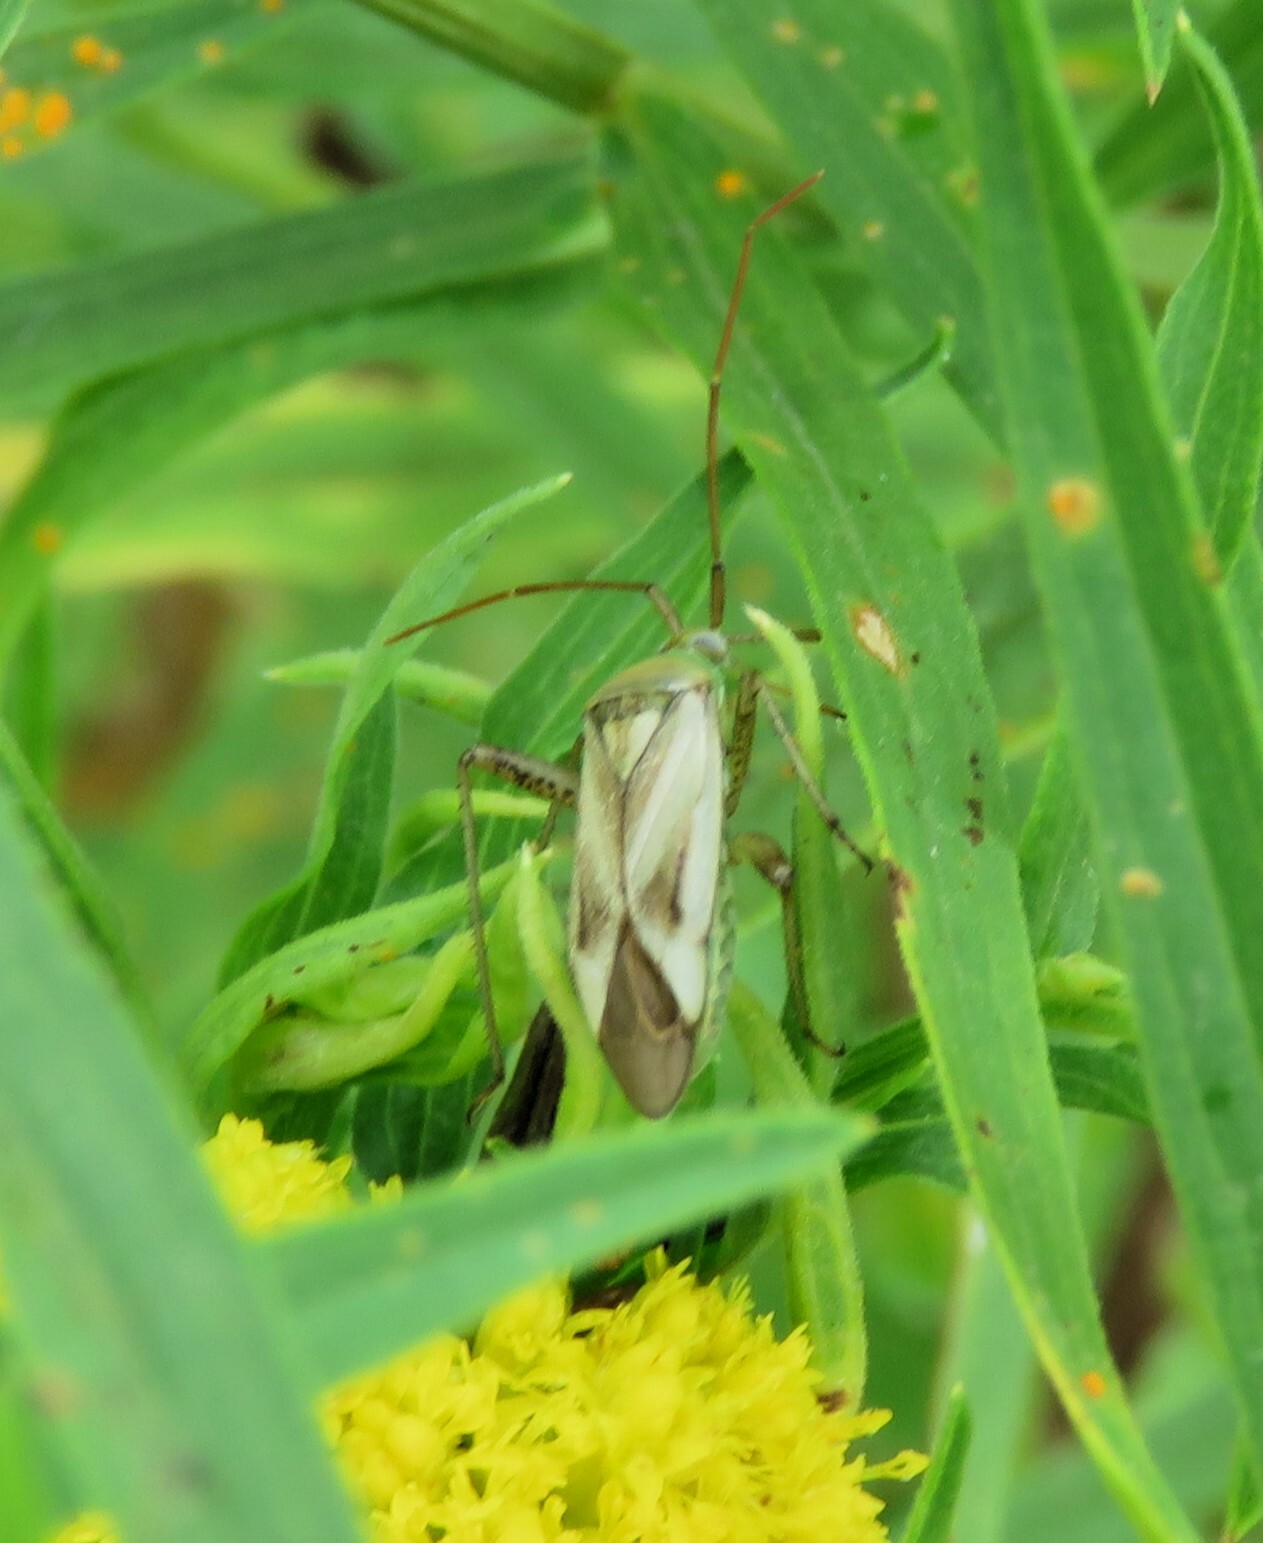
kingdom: Animalia
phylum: Arthropoda
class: Insecta
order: Hemiptera
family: Miridae
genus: Adelphocoris
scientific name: Adelphocoris lineolatus
